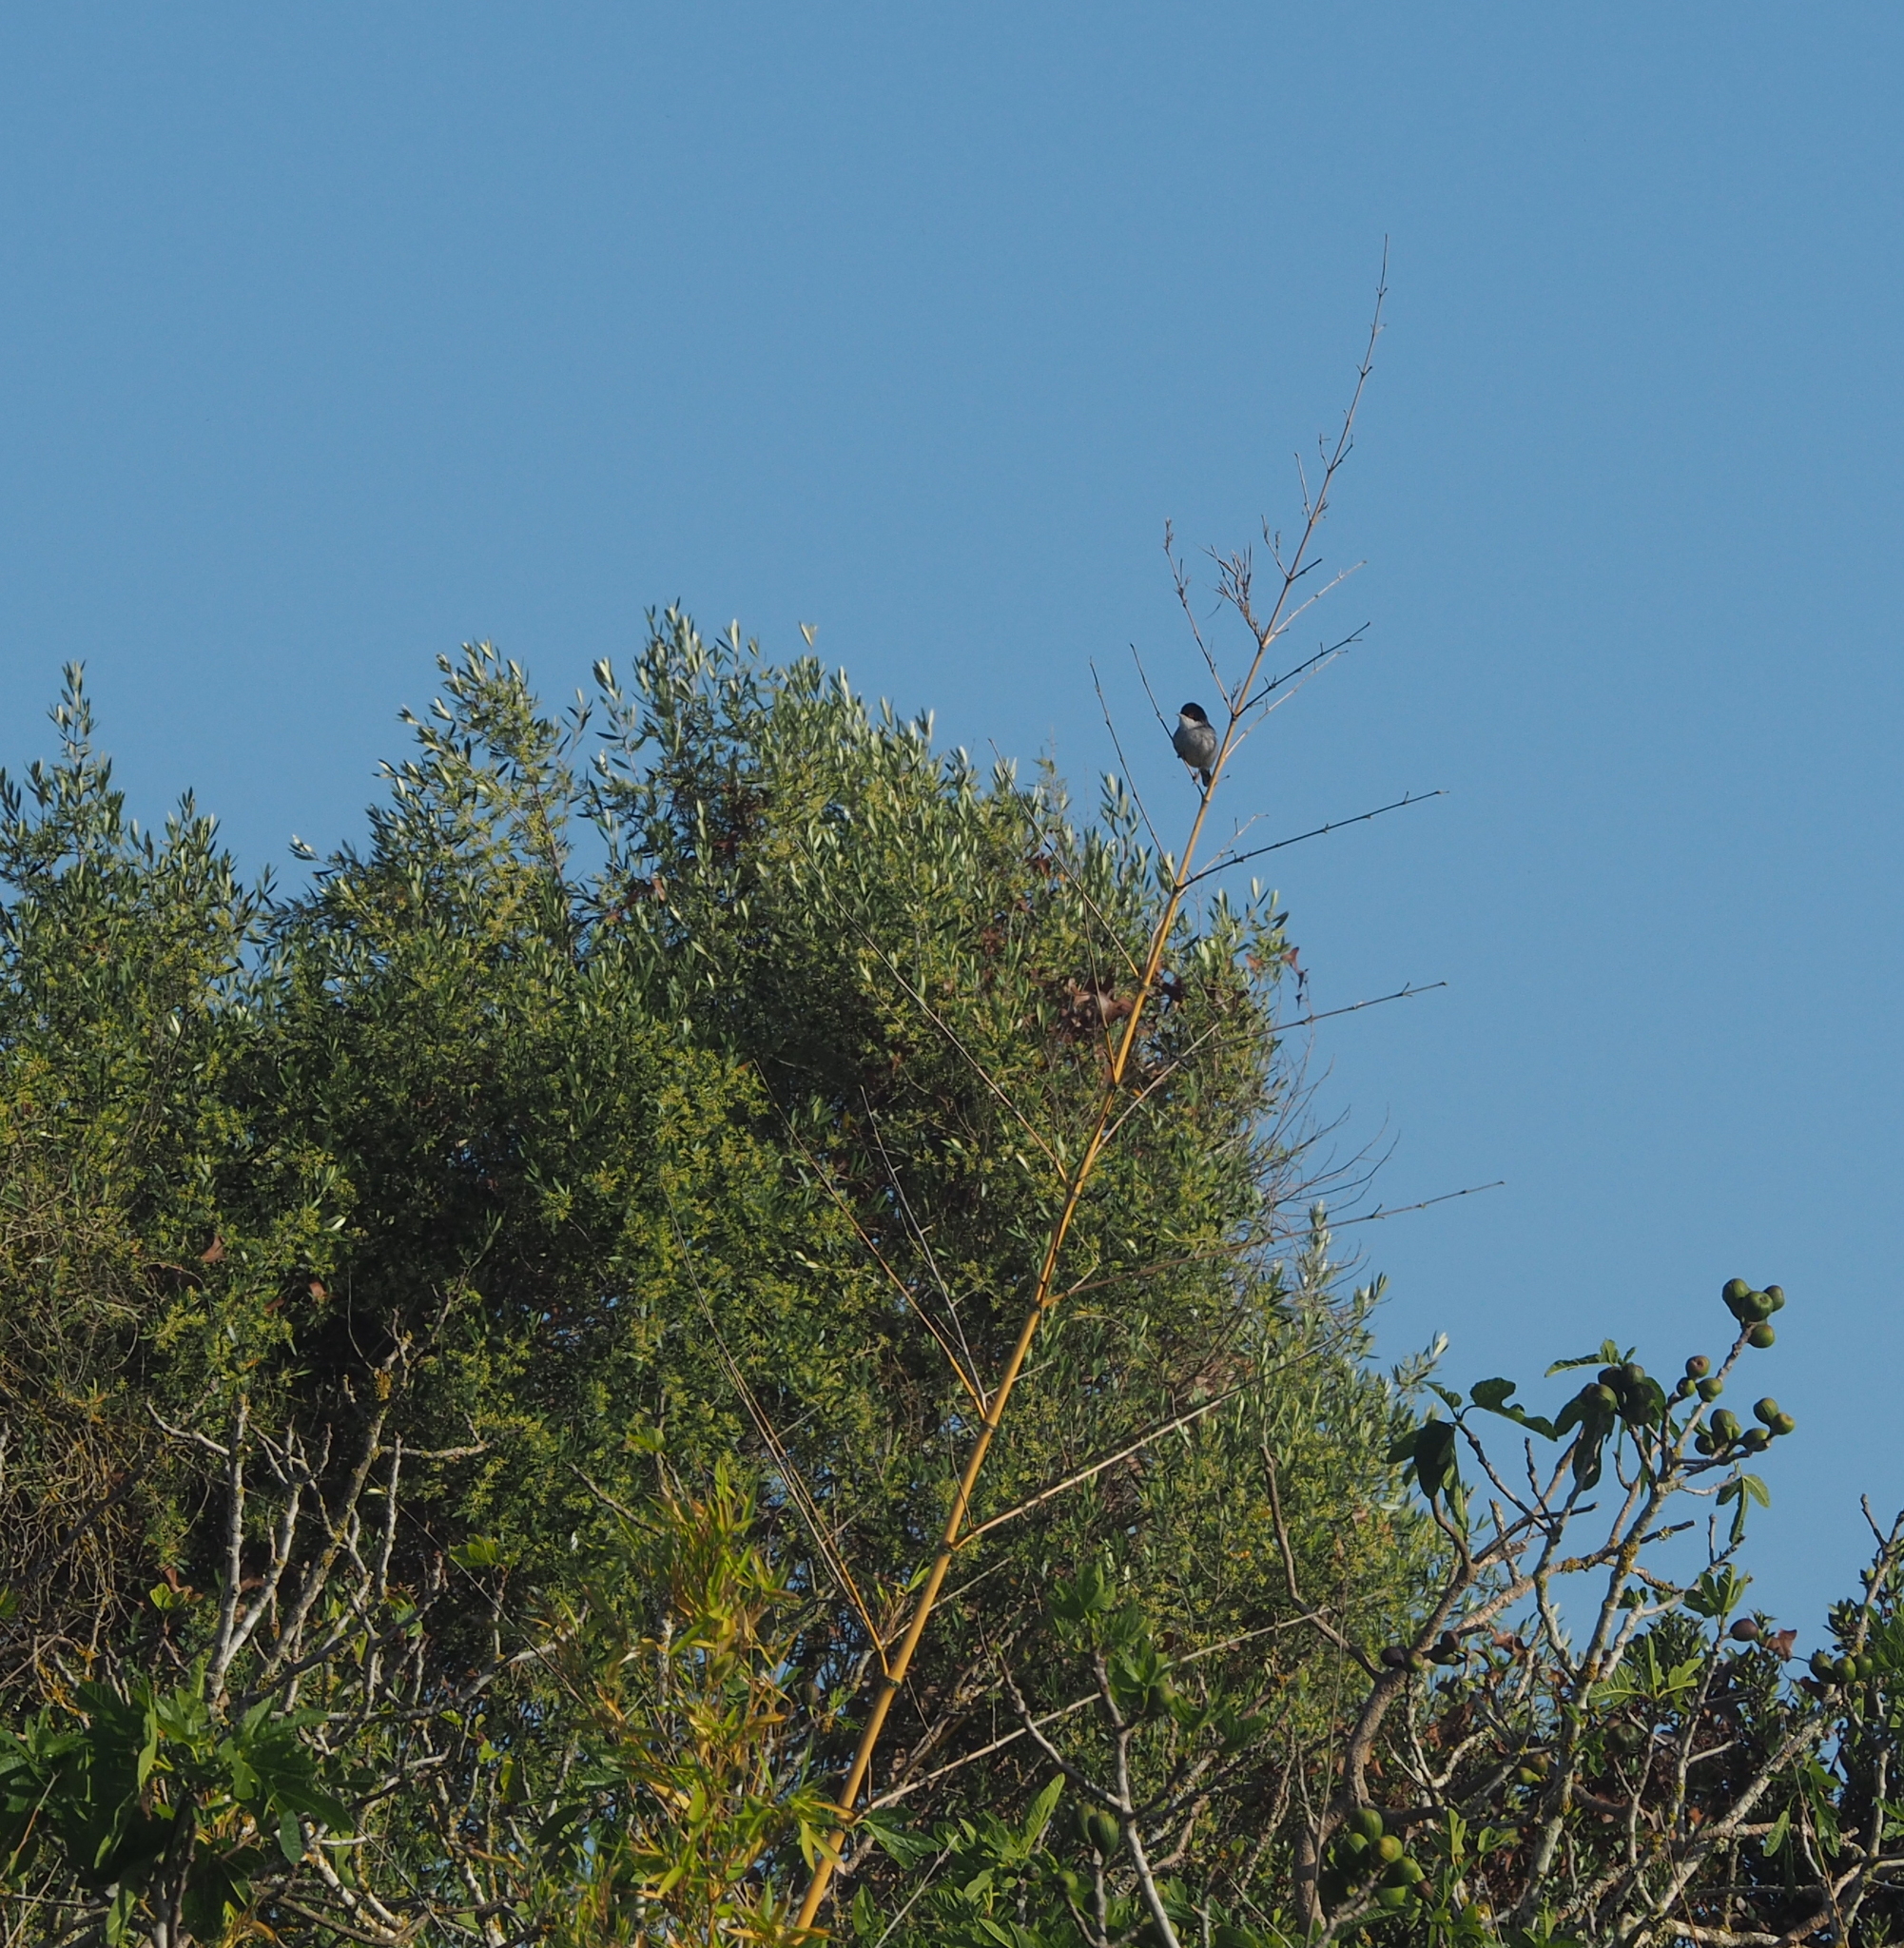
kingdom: Animalia
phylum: Chordata
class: Aves
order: Passeriformes
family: Sylviidae
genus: Curruca
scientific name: Curruca melanocephala
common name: Sardinian warbler
